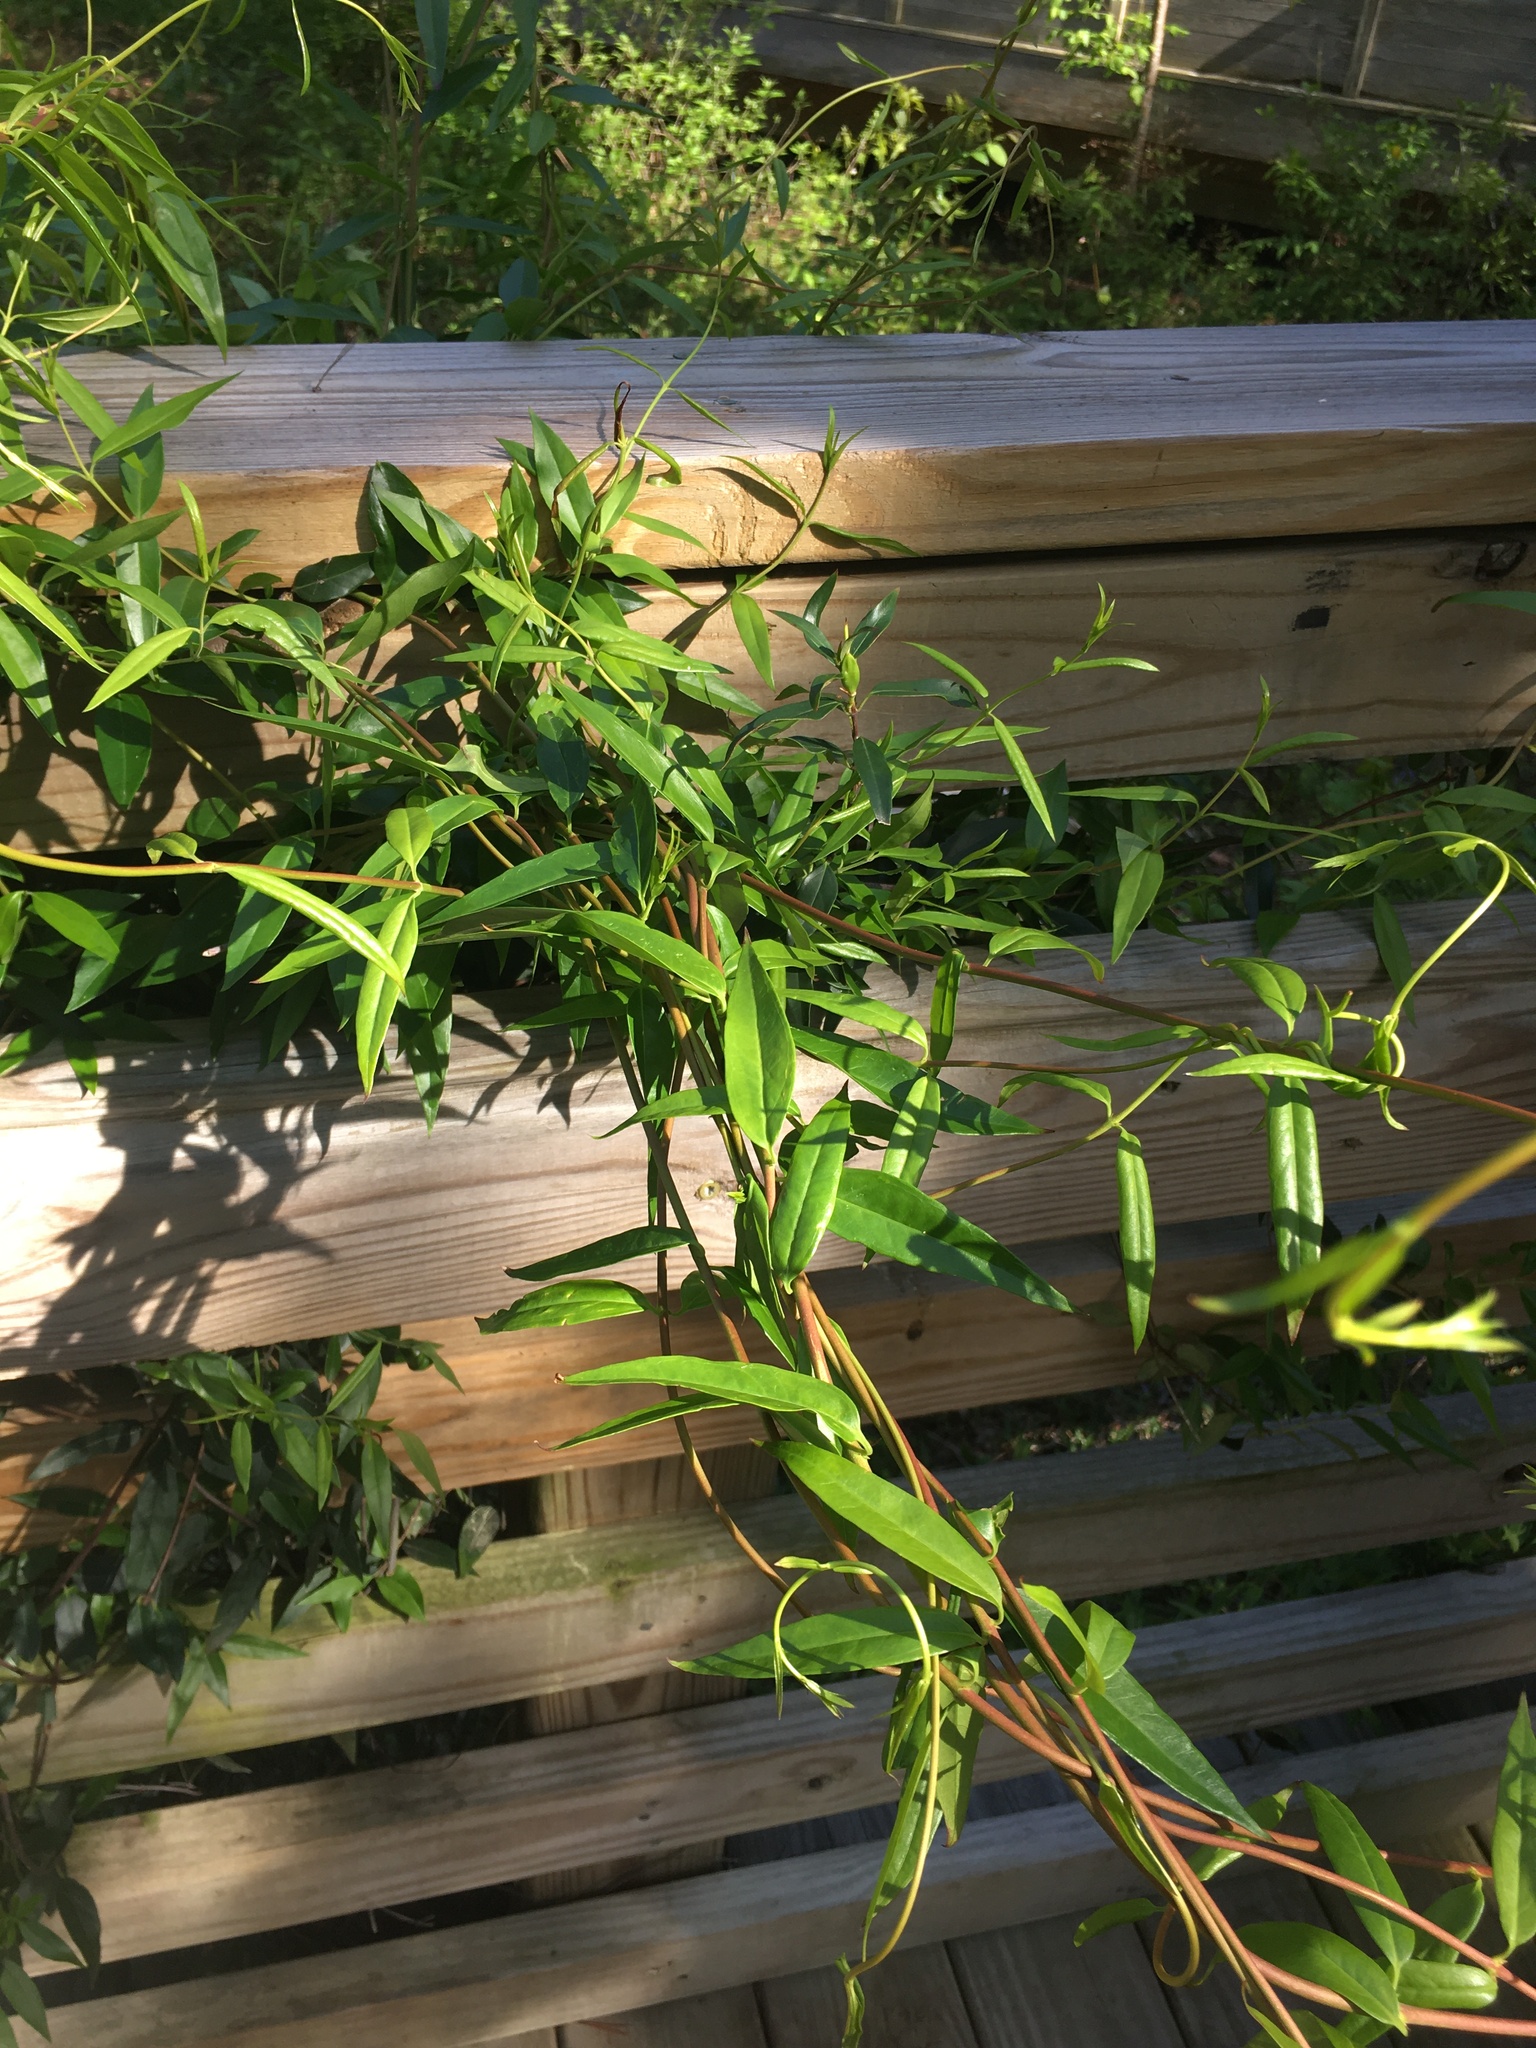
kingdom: Plantae
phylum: Tracheophyta
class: Magnoliopsida
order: Gentianales
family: Gelsemiaceae
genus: Gelsemium
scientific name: Gelsemium sempervirens
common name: Carolina-jasmine
